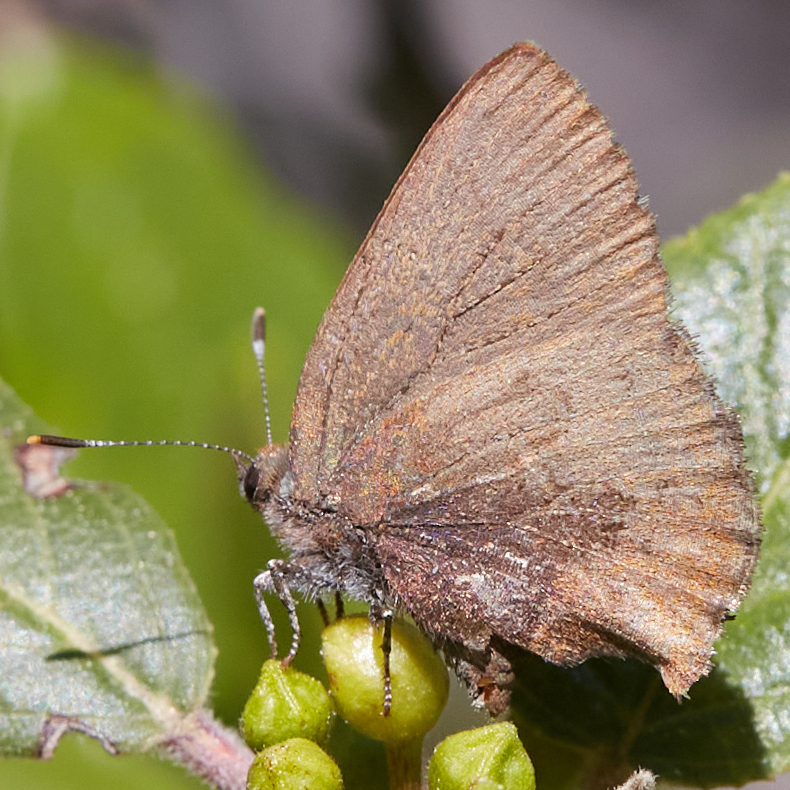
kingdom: Animalia
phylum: Arthropoda
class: Insecta
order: Lepidoptera
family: Lycaenidae
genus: Incisalia
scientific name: Incisalia irioides
